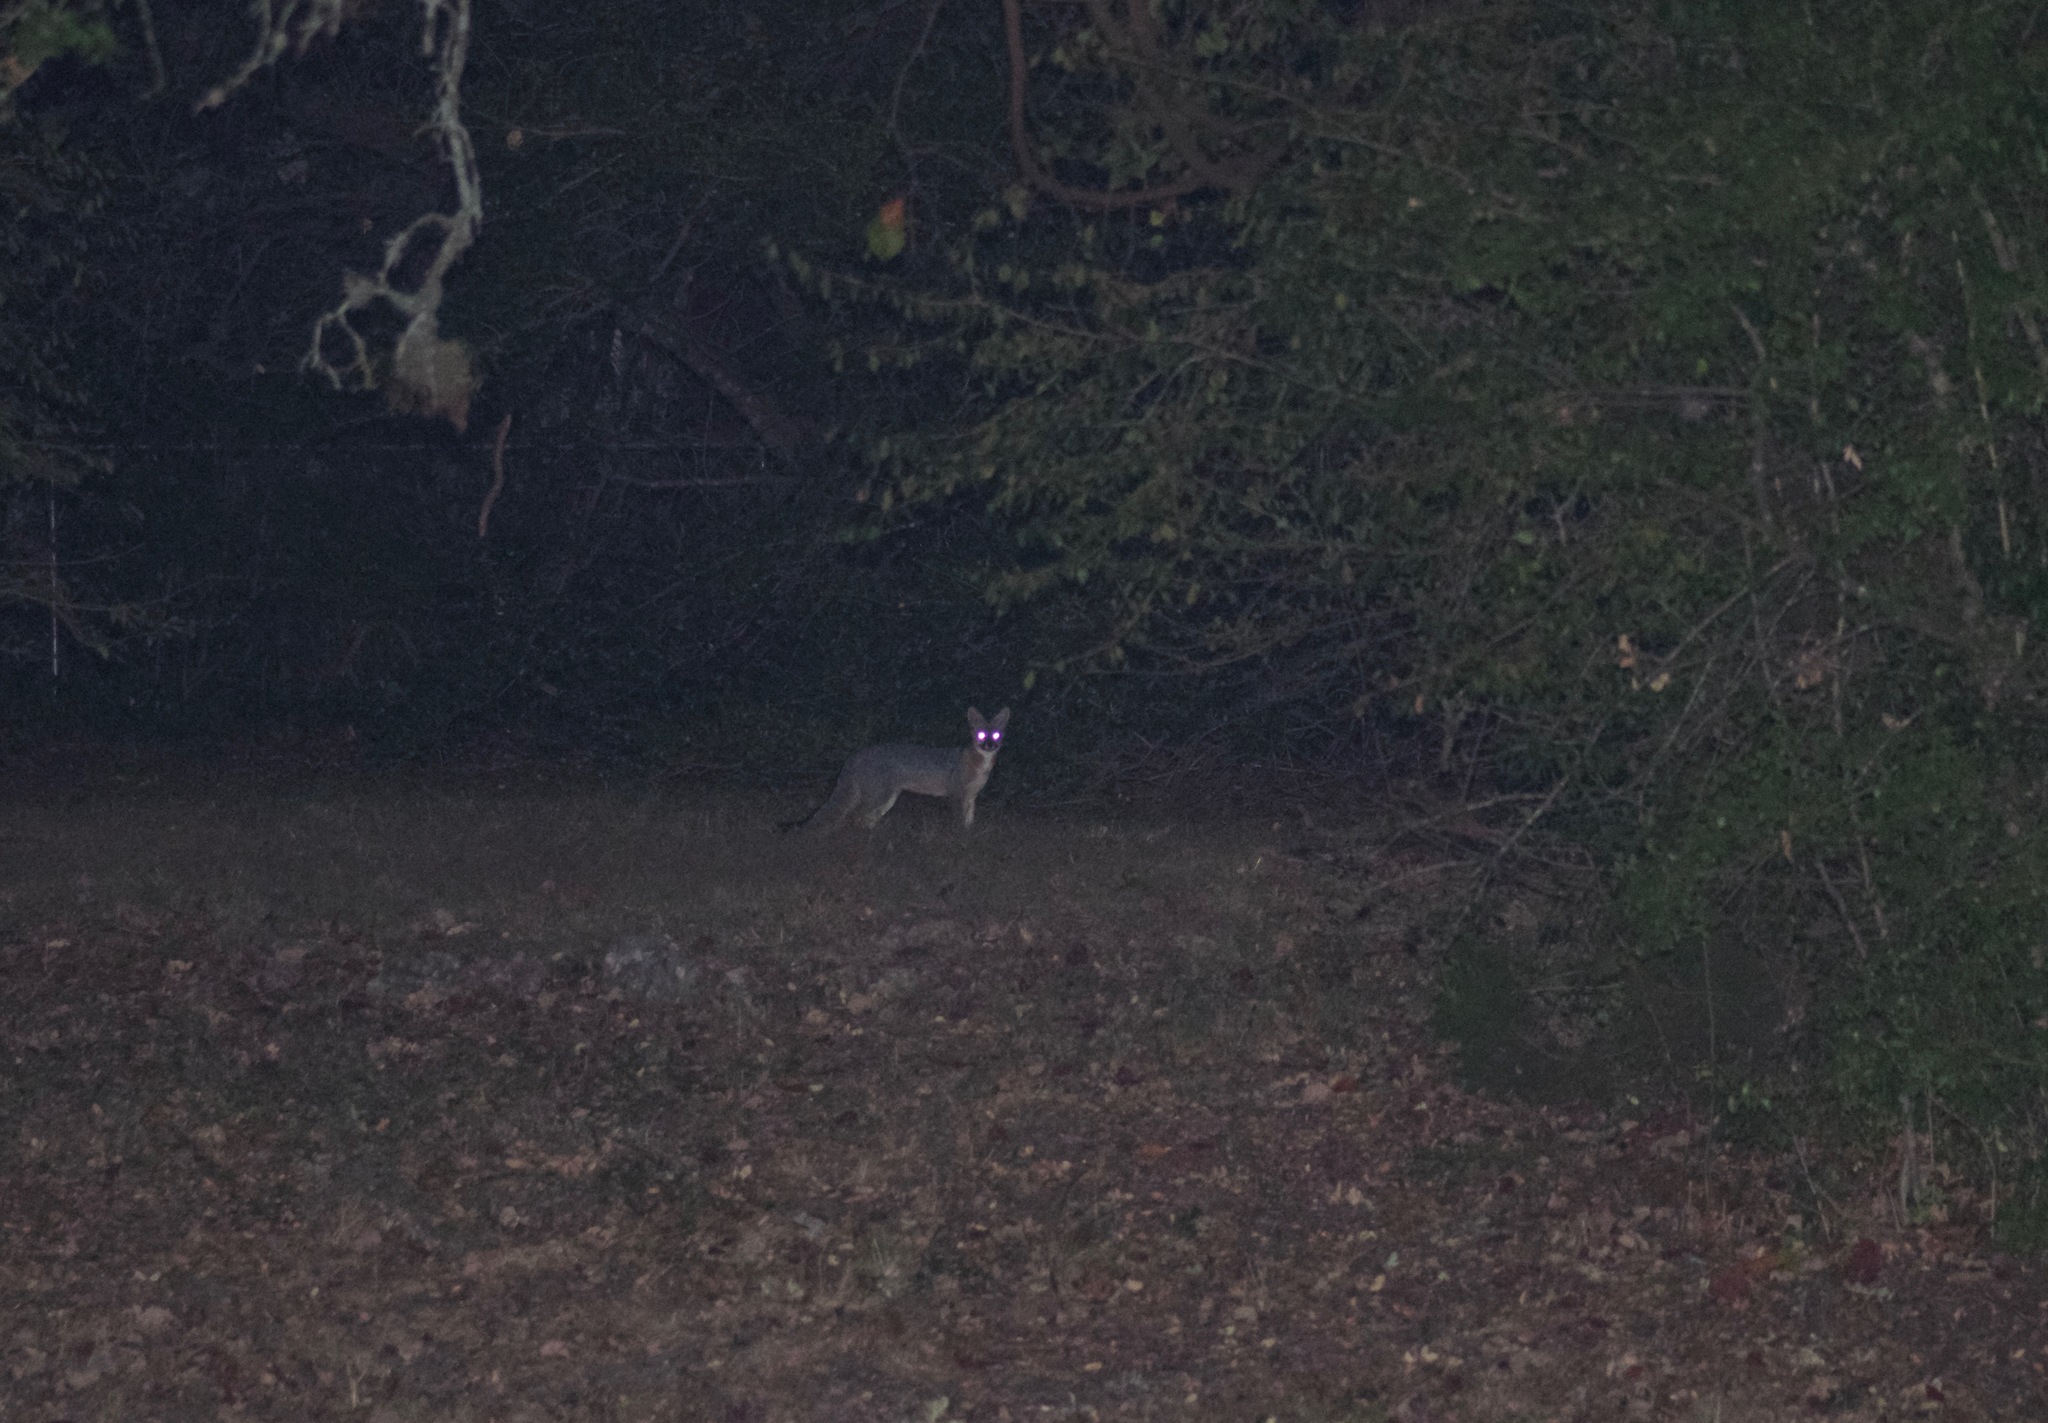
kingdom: Animalia
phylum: Chordata
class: Mammalia
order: Carnivora
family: Canidae
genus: Urocyon
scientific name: Urocyon cinereoargenteus
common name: Gray fox
